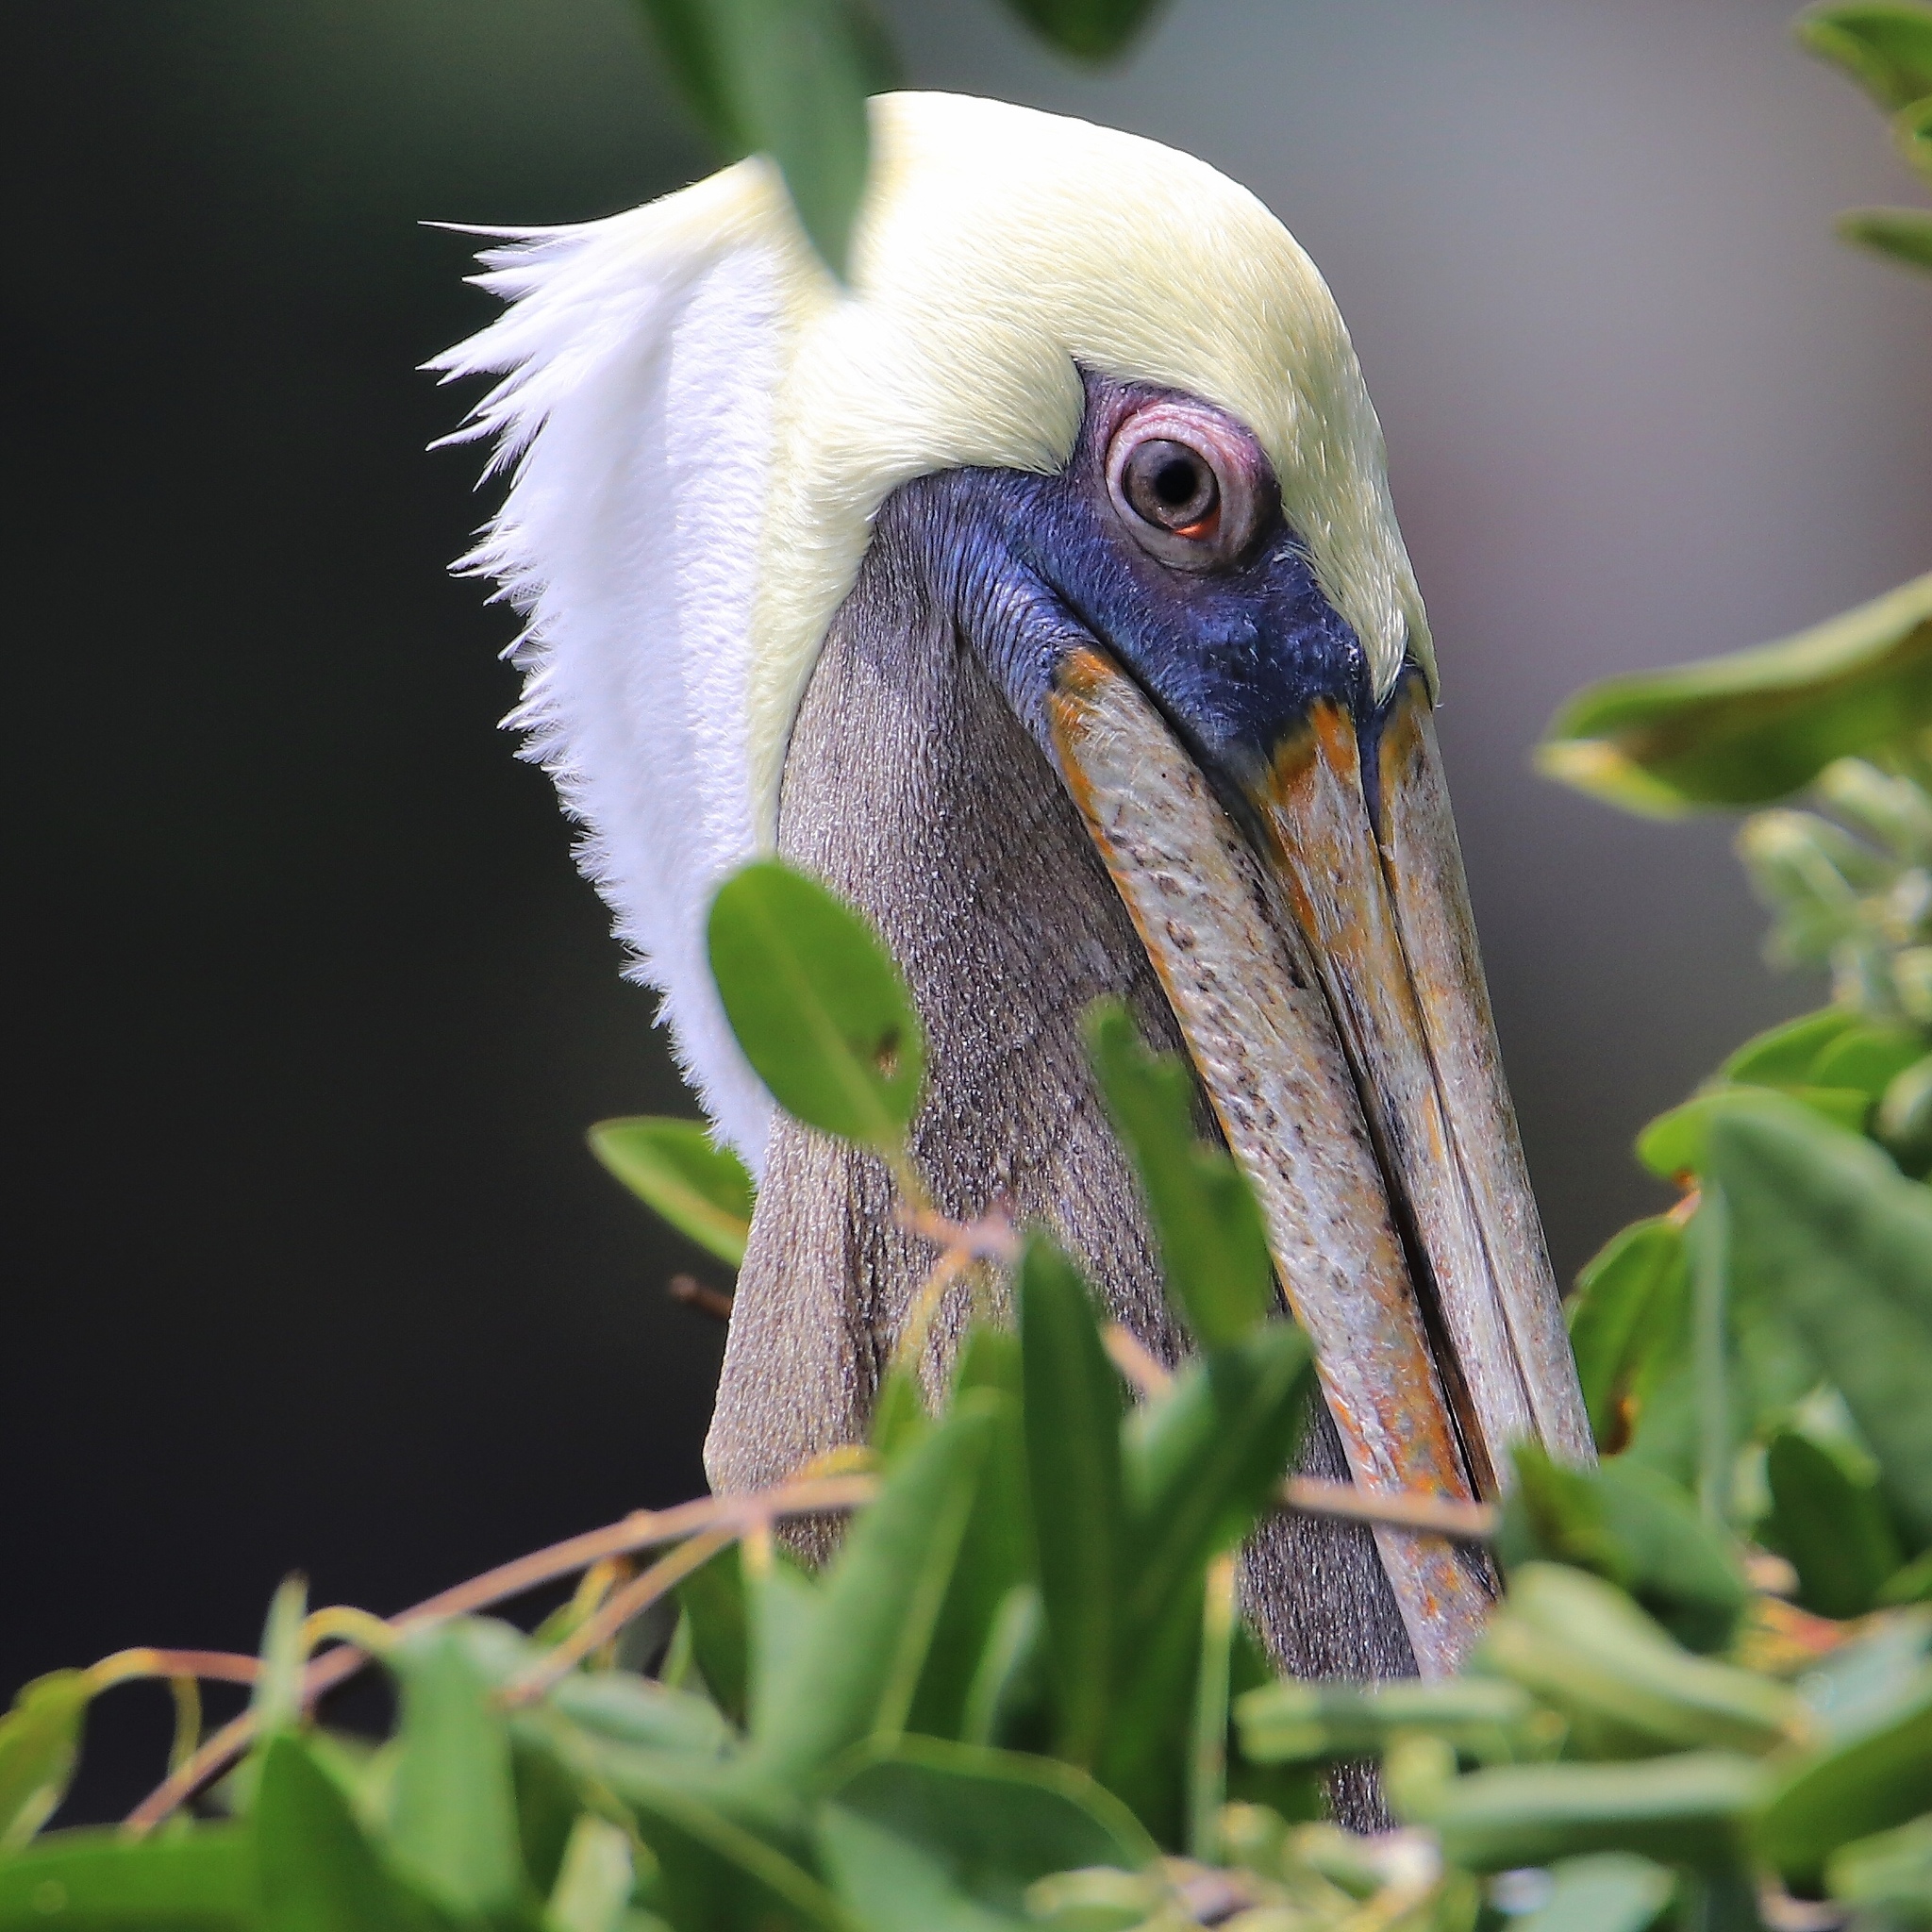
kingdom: Animalia
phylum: Chordata
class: Aves
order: Pelecaniformes
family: Pelecanidae
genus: Pelecanus
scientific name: Pelecanus occidentalis
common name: Brown pelican
